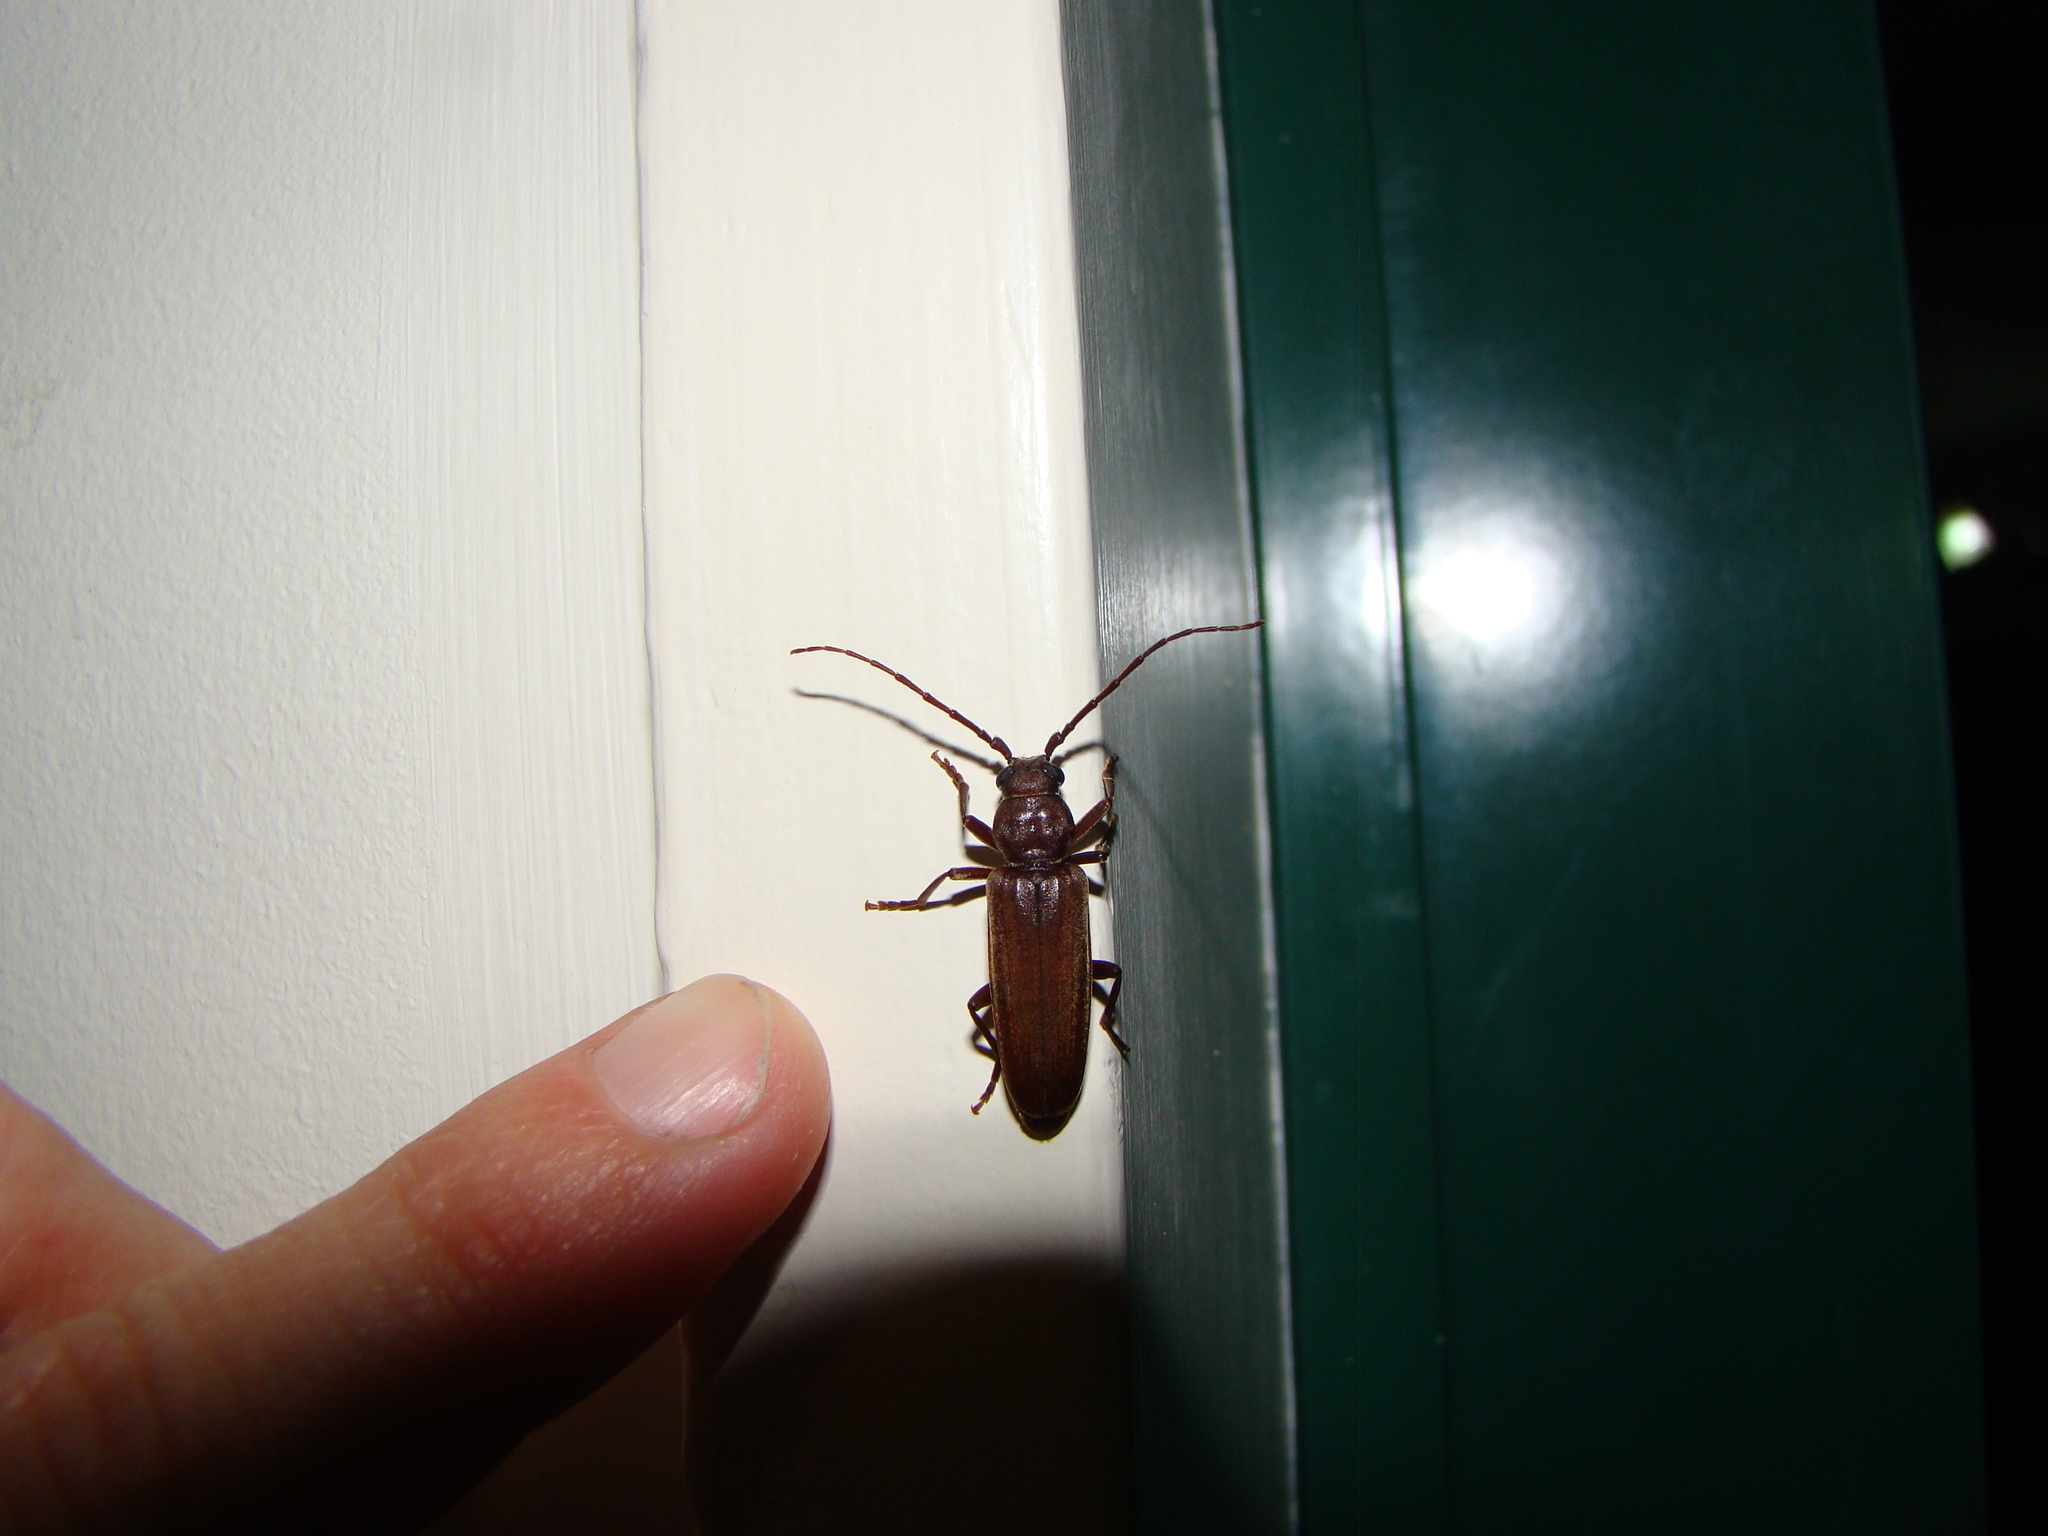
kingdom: Animalia
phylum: Arthropoda
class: Insecta
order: Coleoptera
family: Cerambycidae
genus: Arhopalus
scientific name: Arhopalus ferus
